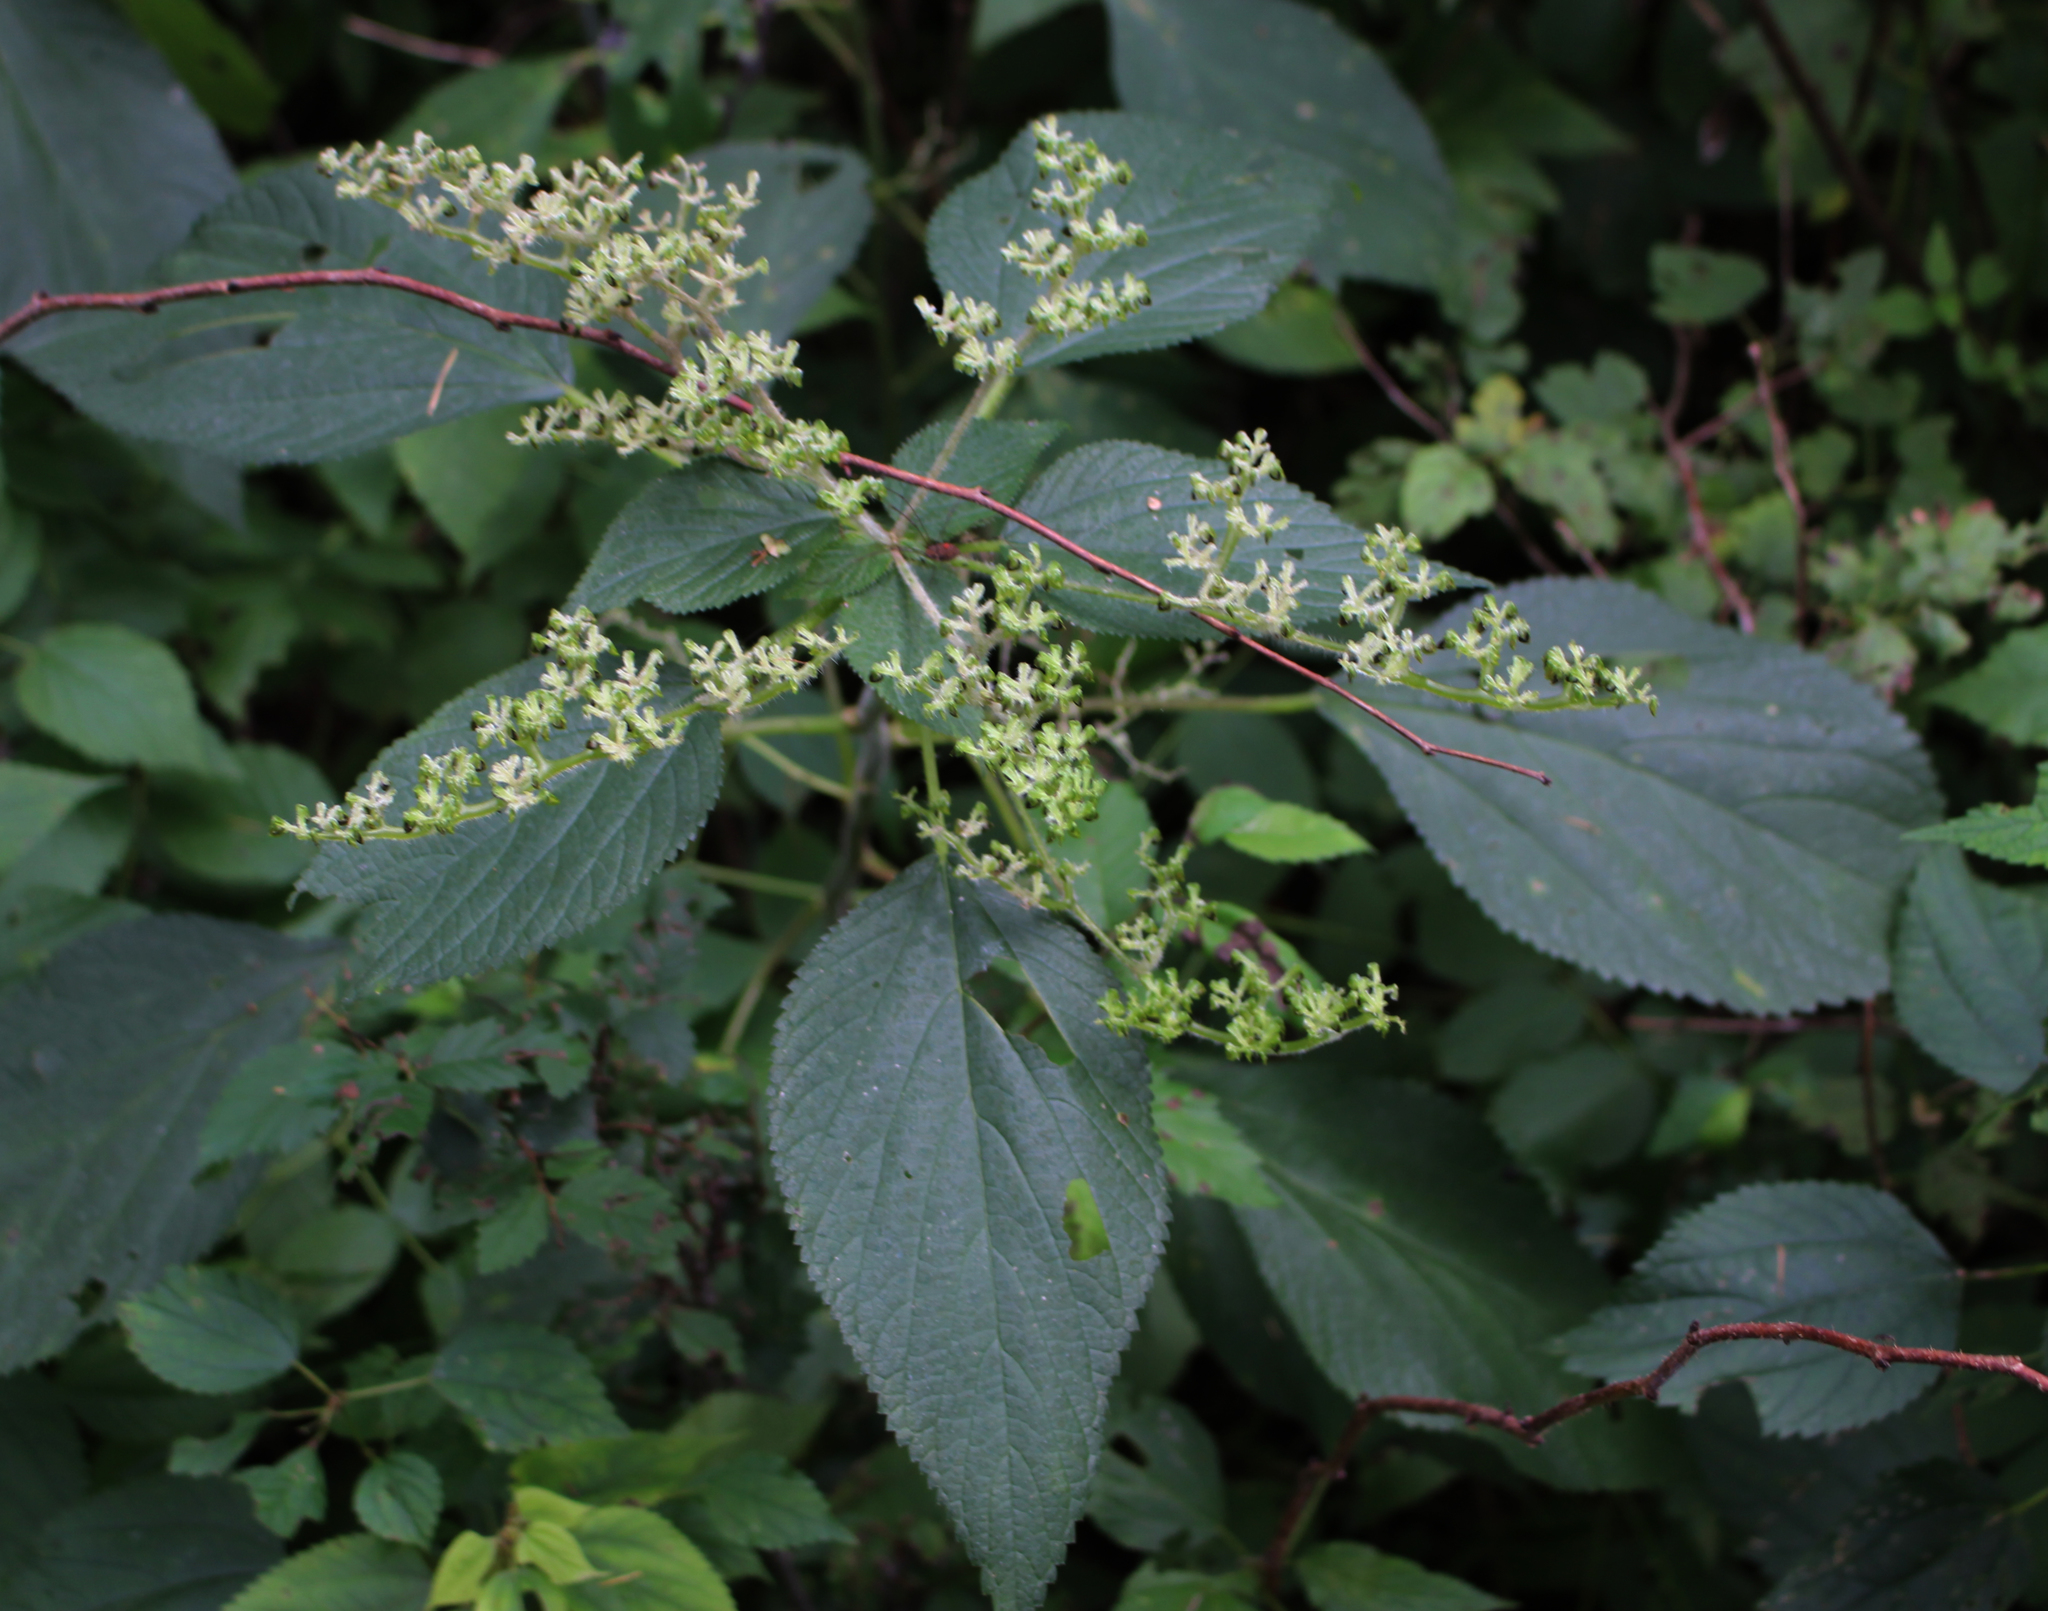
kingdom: Plantae
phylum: Tracheophyta
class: Magnoliopsida
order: Rosales
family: Urticaceae
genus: Laportea
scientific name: Laportea canadensis
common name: Canada nettle
